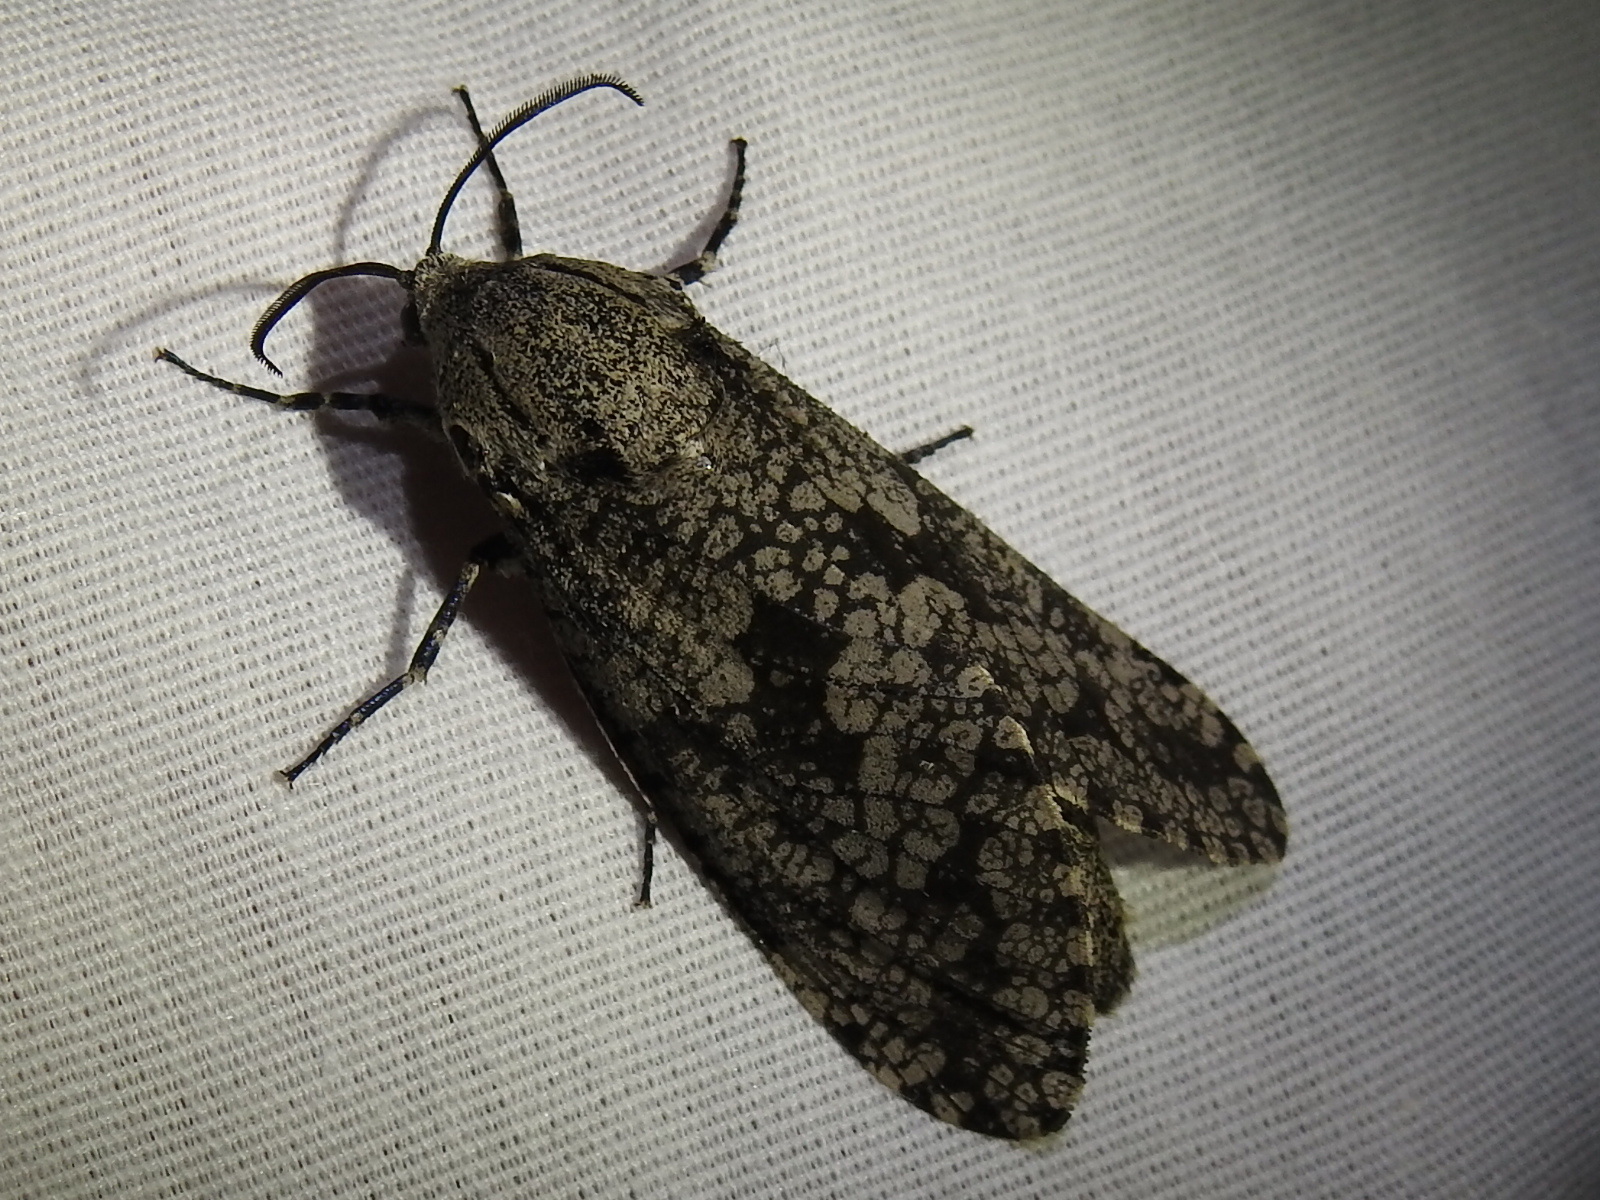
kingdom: Animalia
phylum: Arthropoda
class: Insecta
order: Lepidoptera
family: Cossidae
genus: Prionoxystus
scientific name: Prionoxystus robiniae
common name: Carpenterworm
